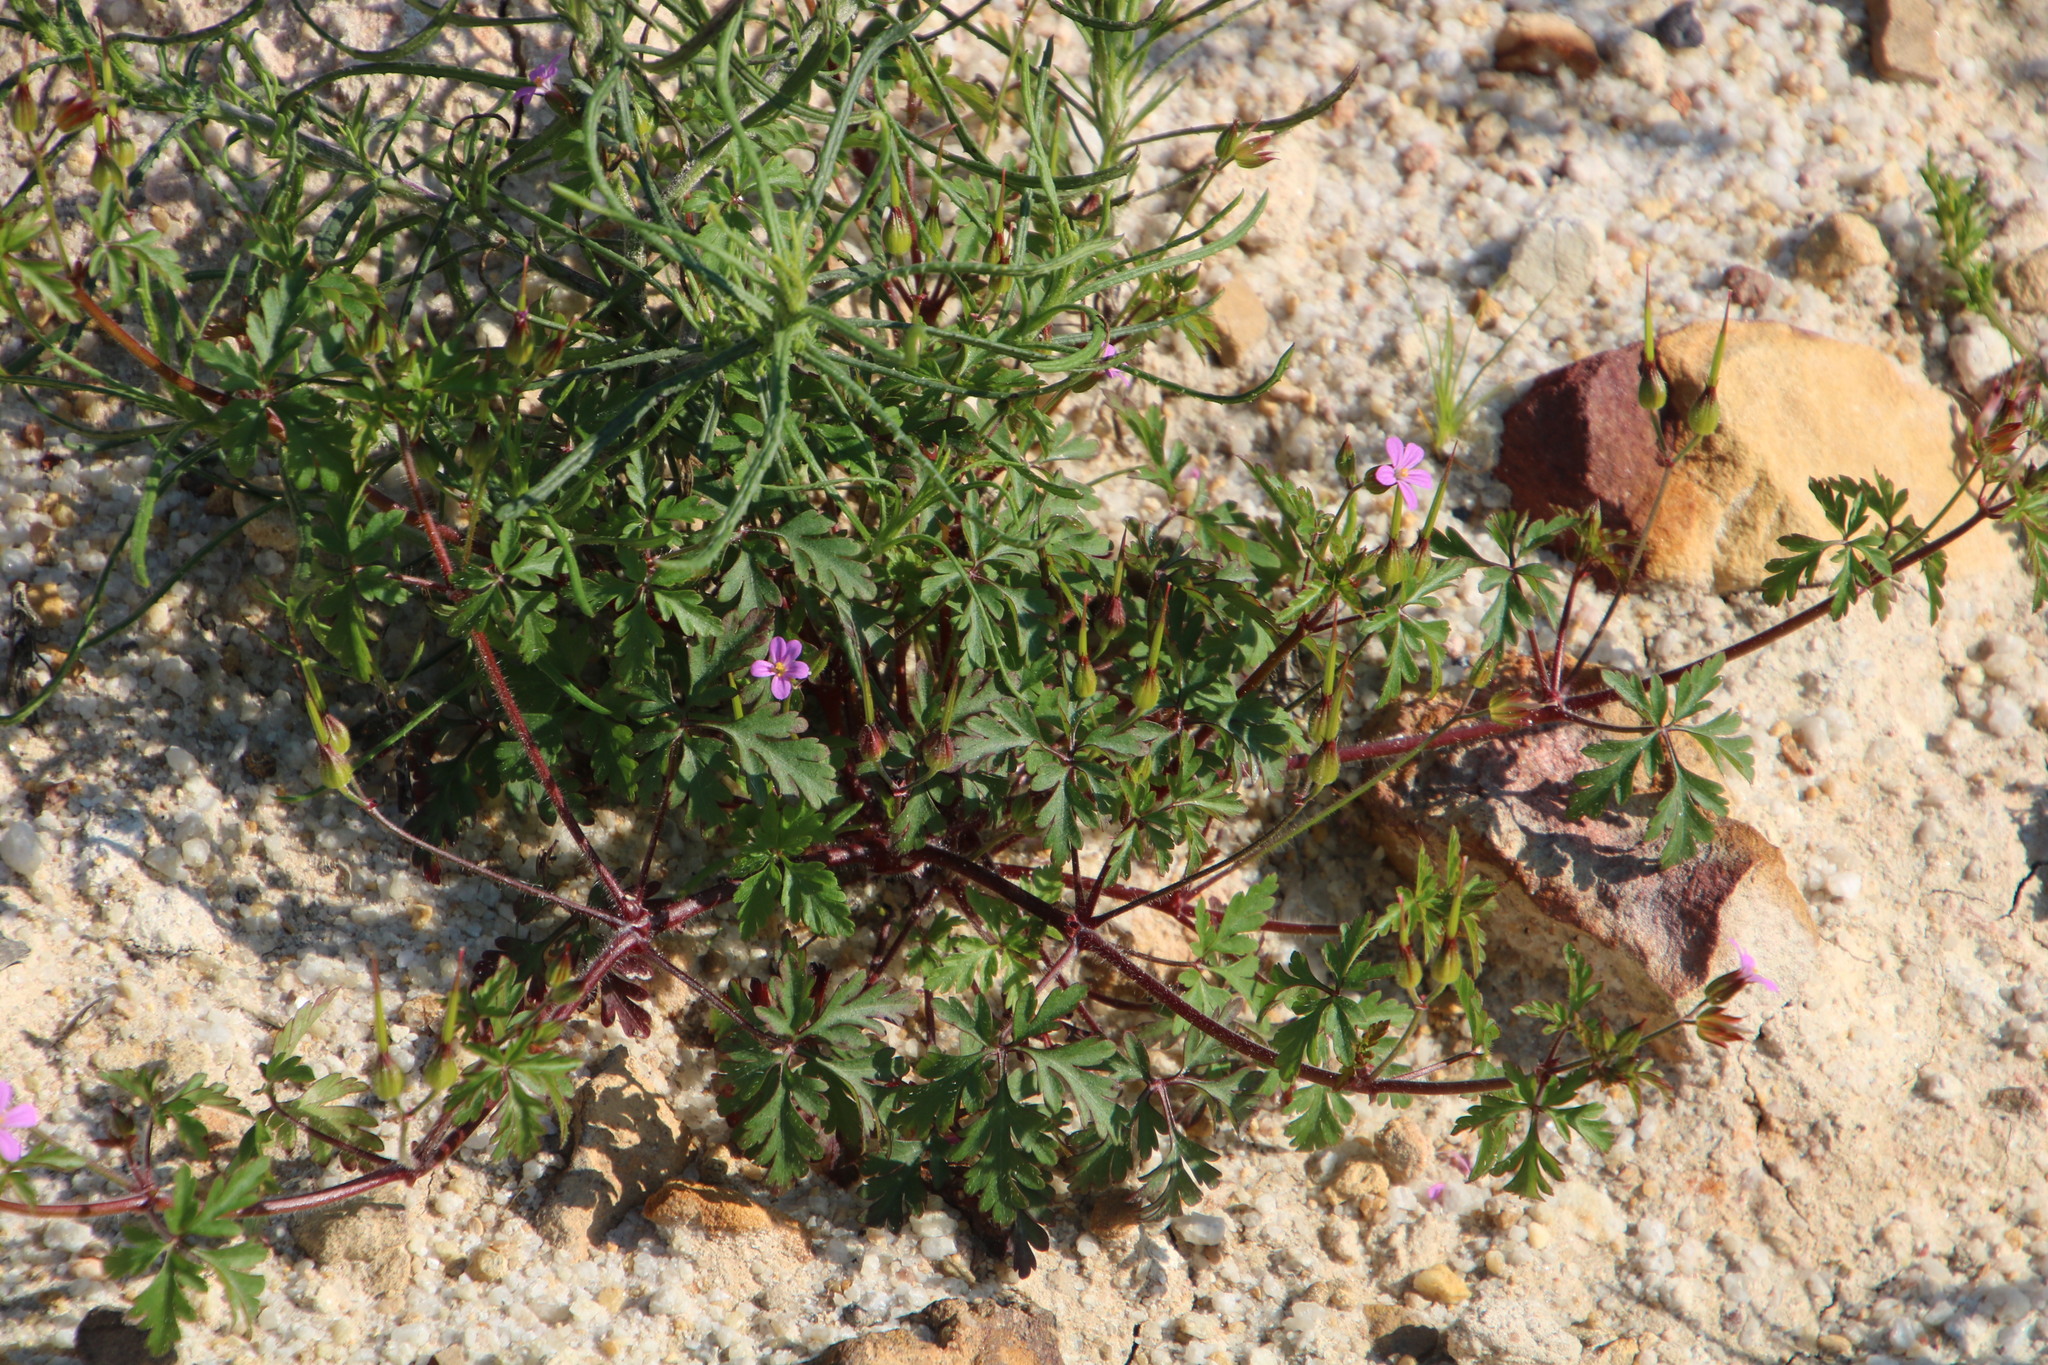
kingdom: Plantae
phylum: Tracheophyta
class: Magnoliopsida
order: Geraniales
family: Geraniaceae
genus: Geranium
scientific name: Geranium purpureum
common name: Little-robin
